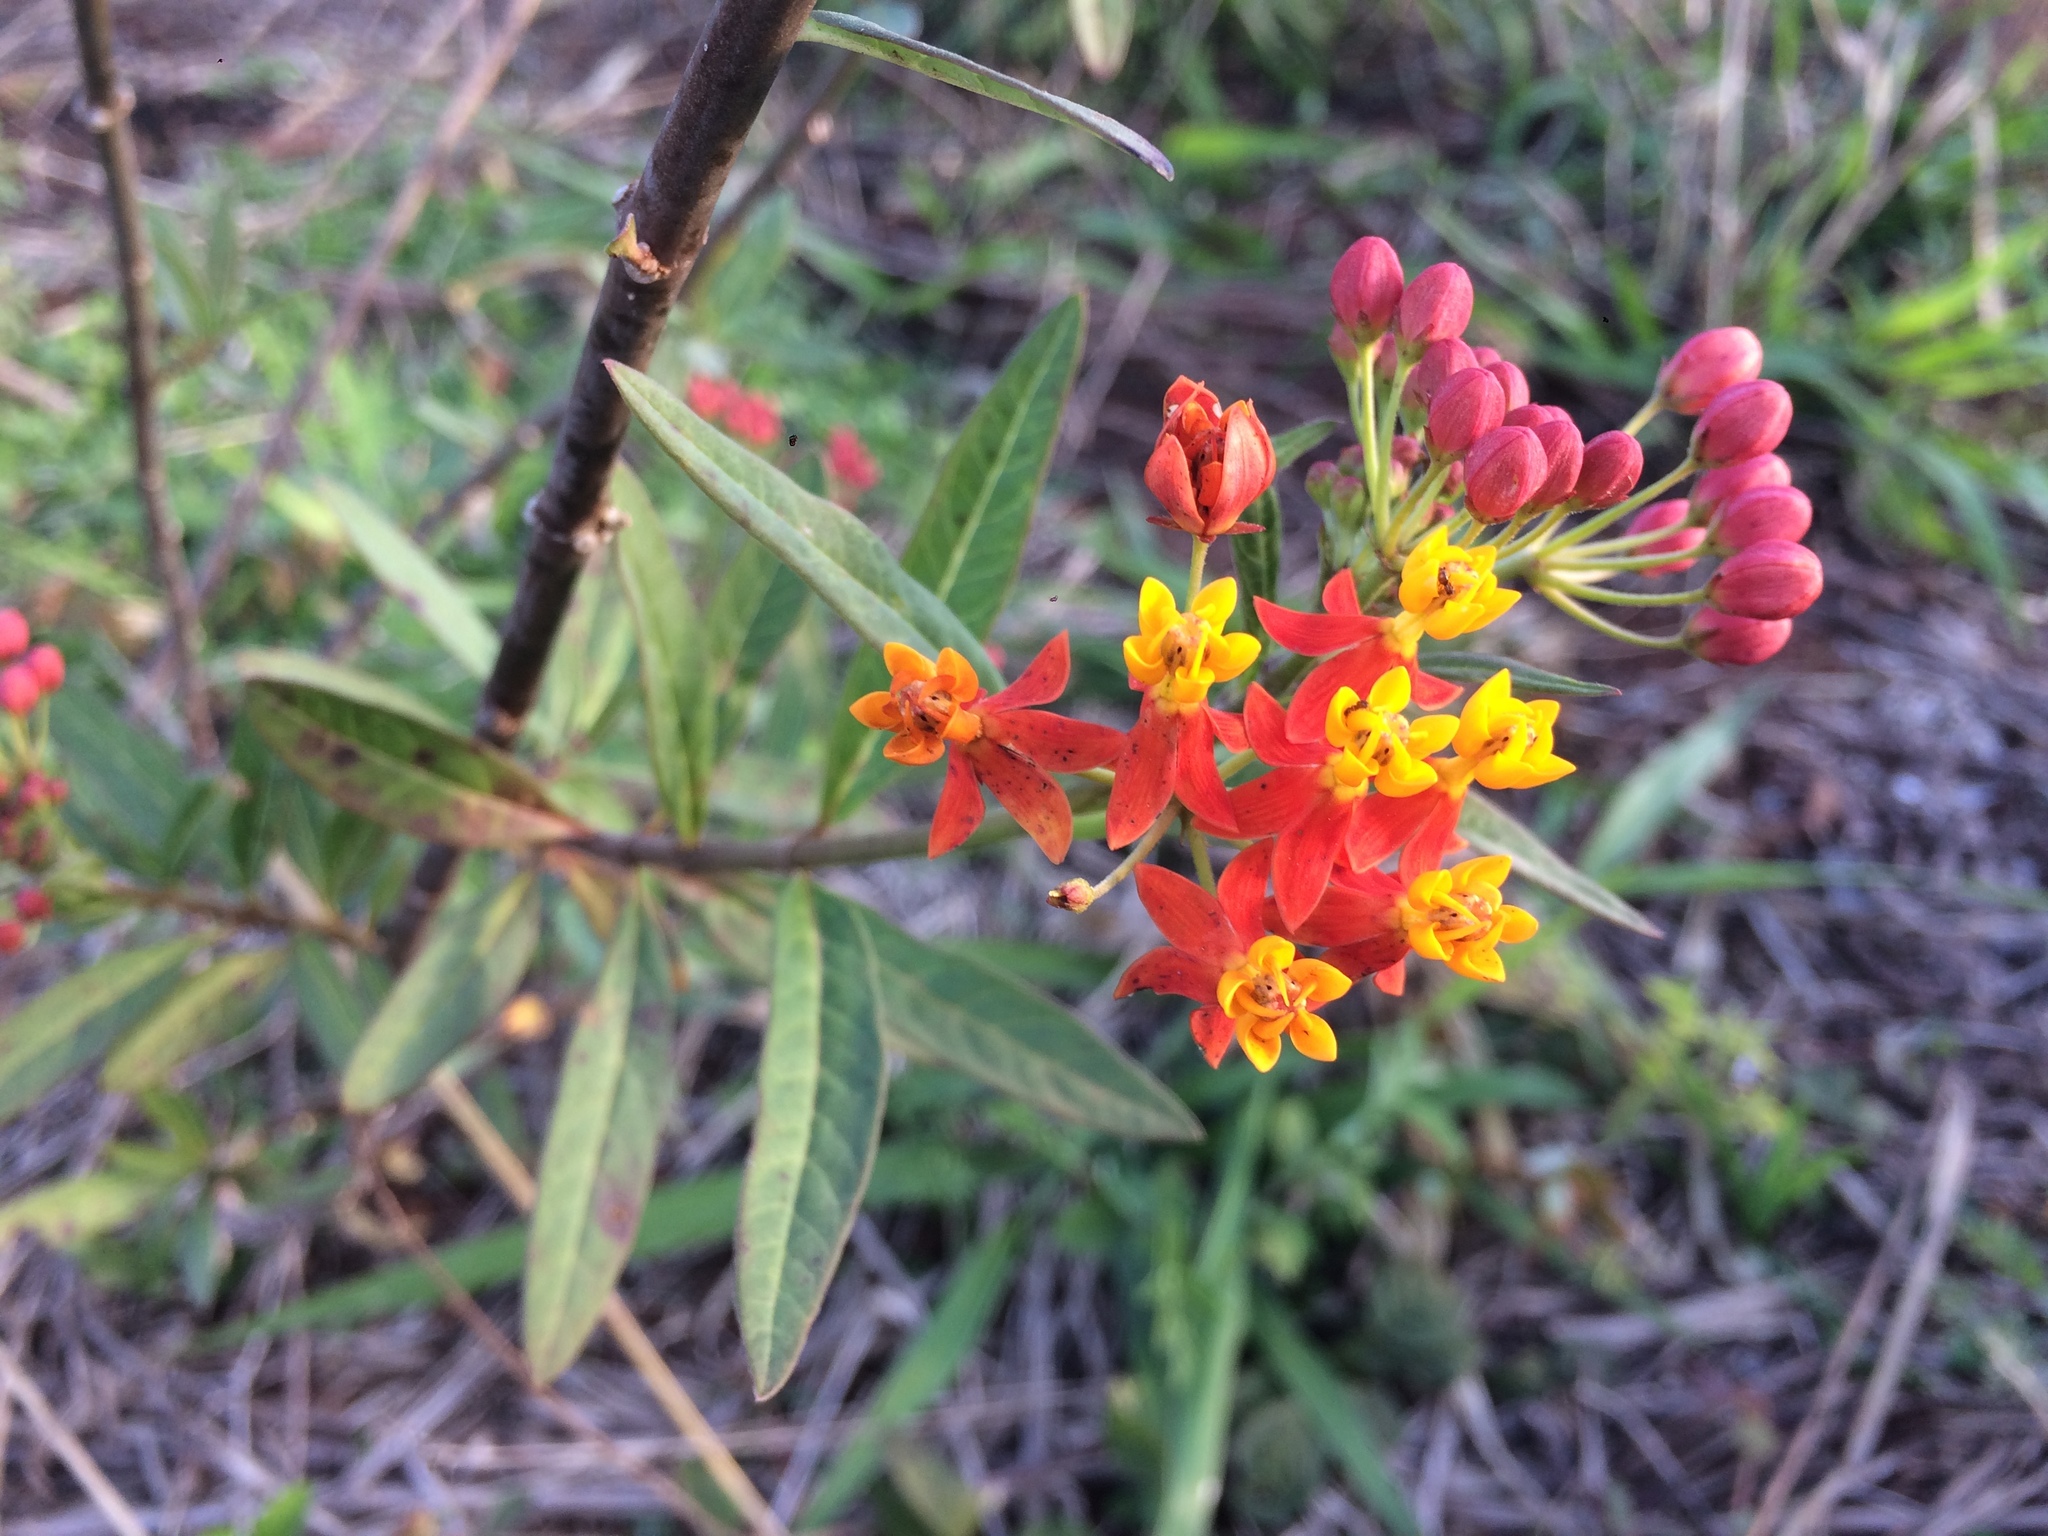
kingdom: Plantae
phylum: Tracheophyta
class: Magnoliopsida
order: Gentianales
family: Apocynaceae
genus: Asclepias
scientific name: Asclepias curassavica
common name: Bloodflower
